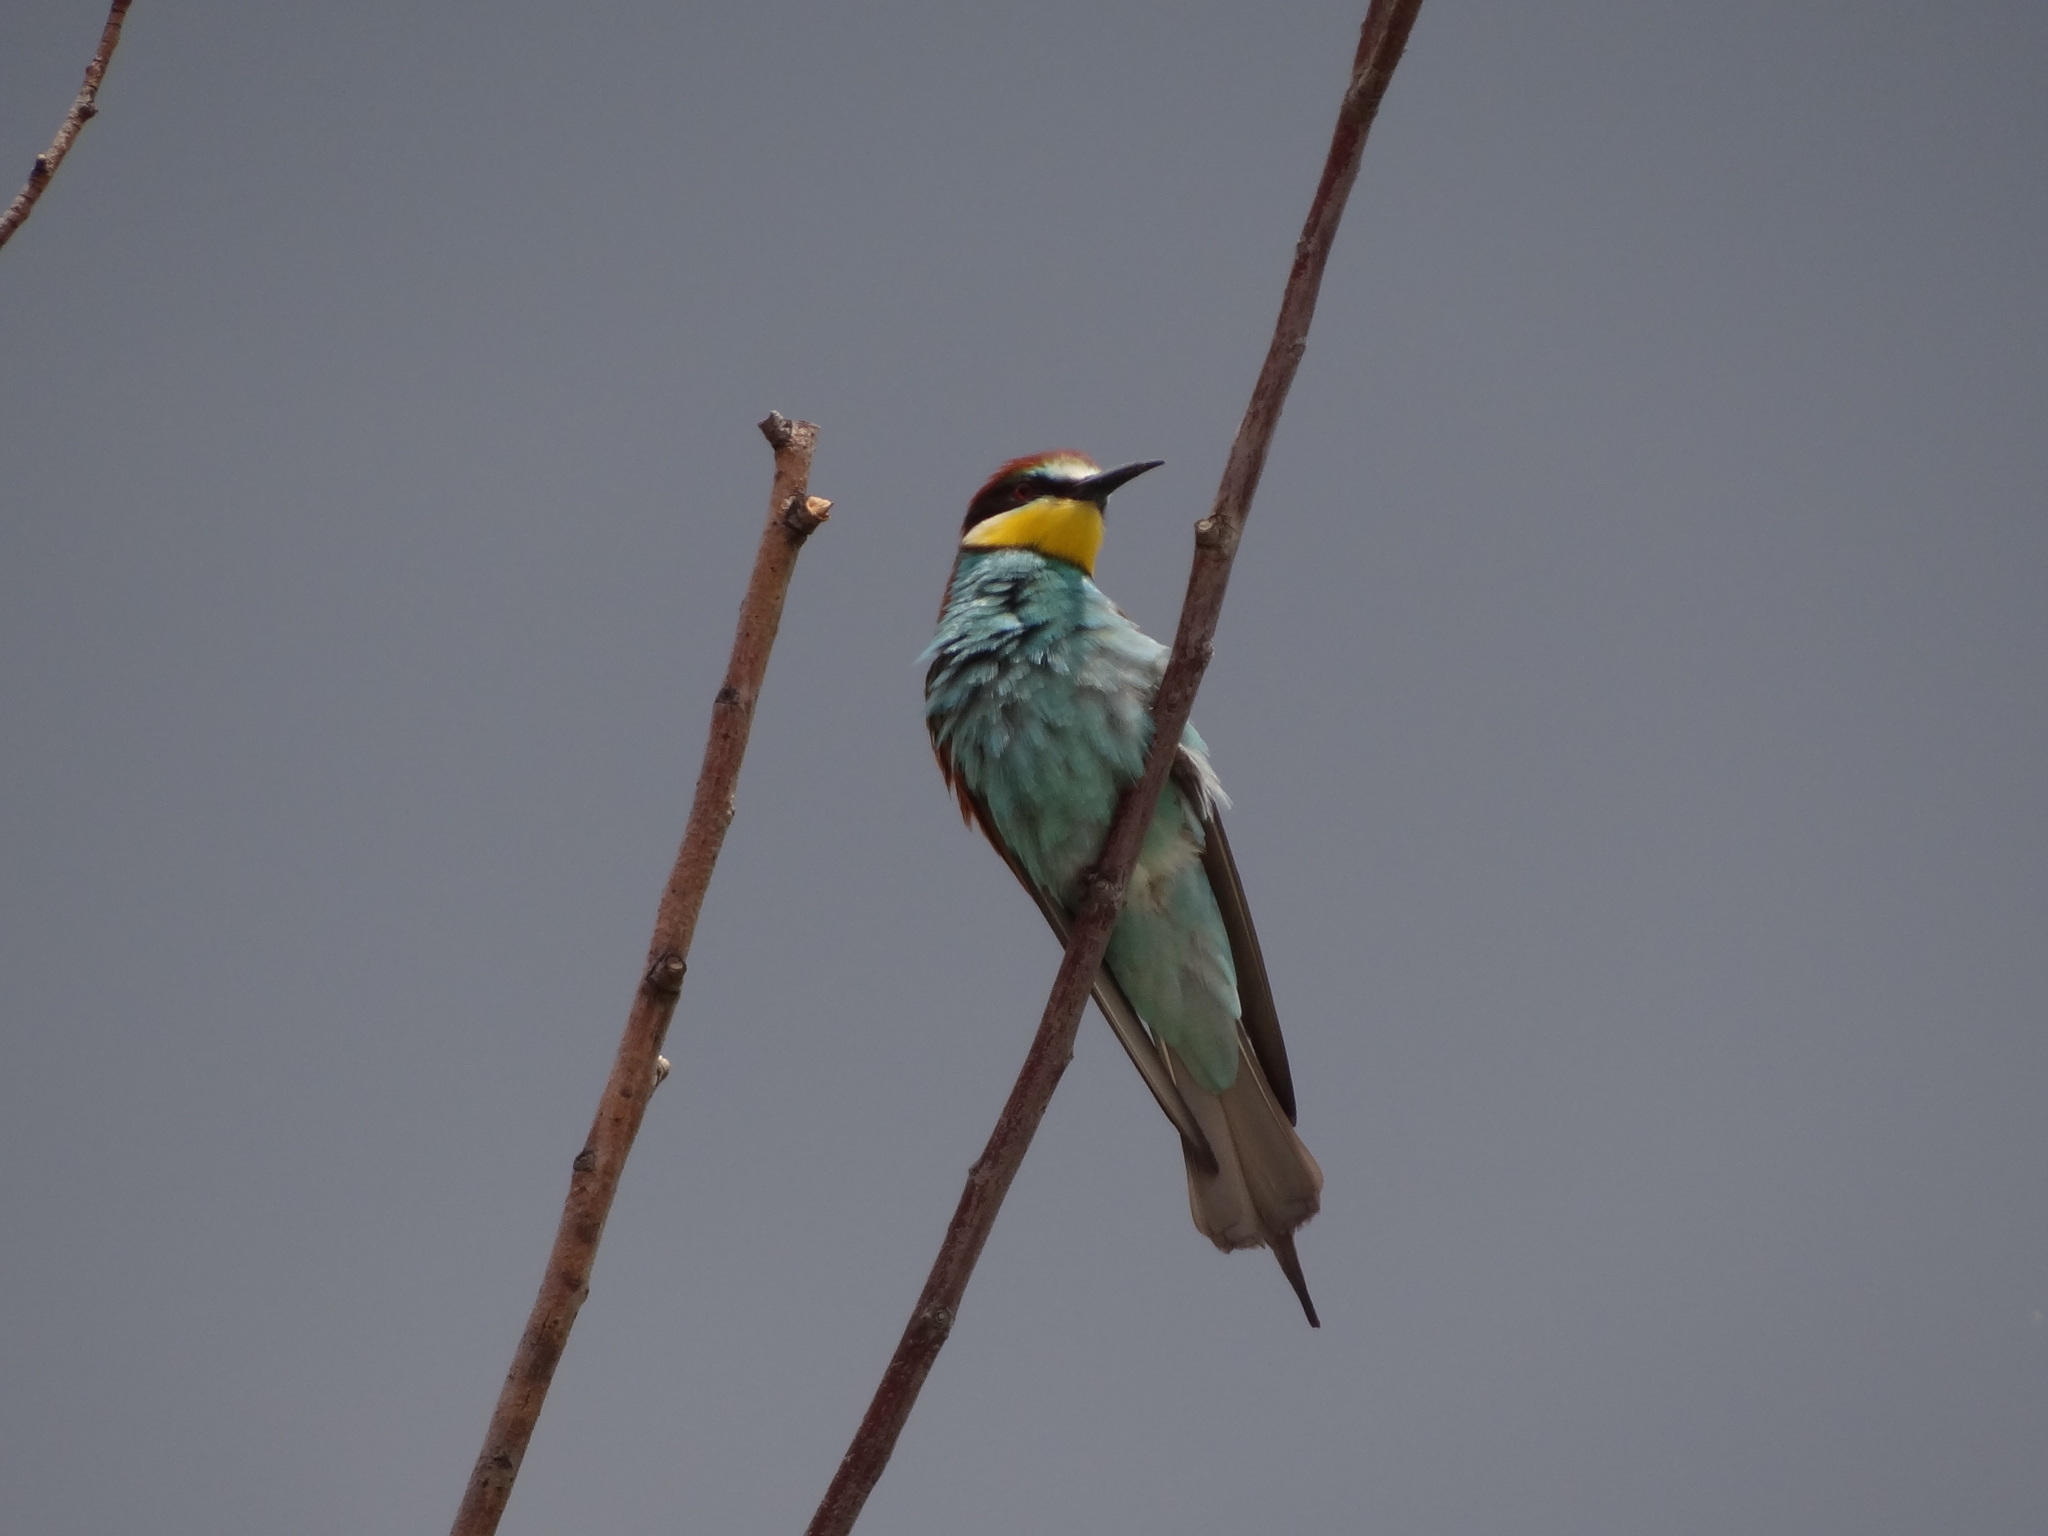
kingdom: Animalia
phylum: Chordata
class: Aves
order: Coraciiformes
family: Meropidae
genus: Merops
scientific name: Merops apiaster
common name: European bee-eater
